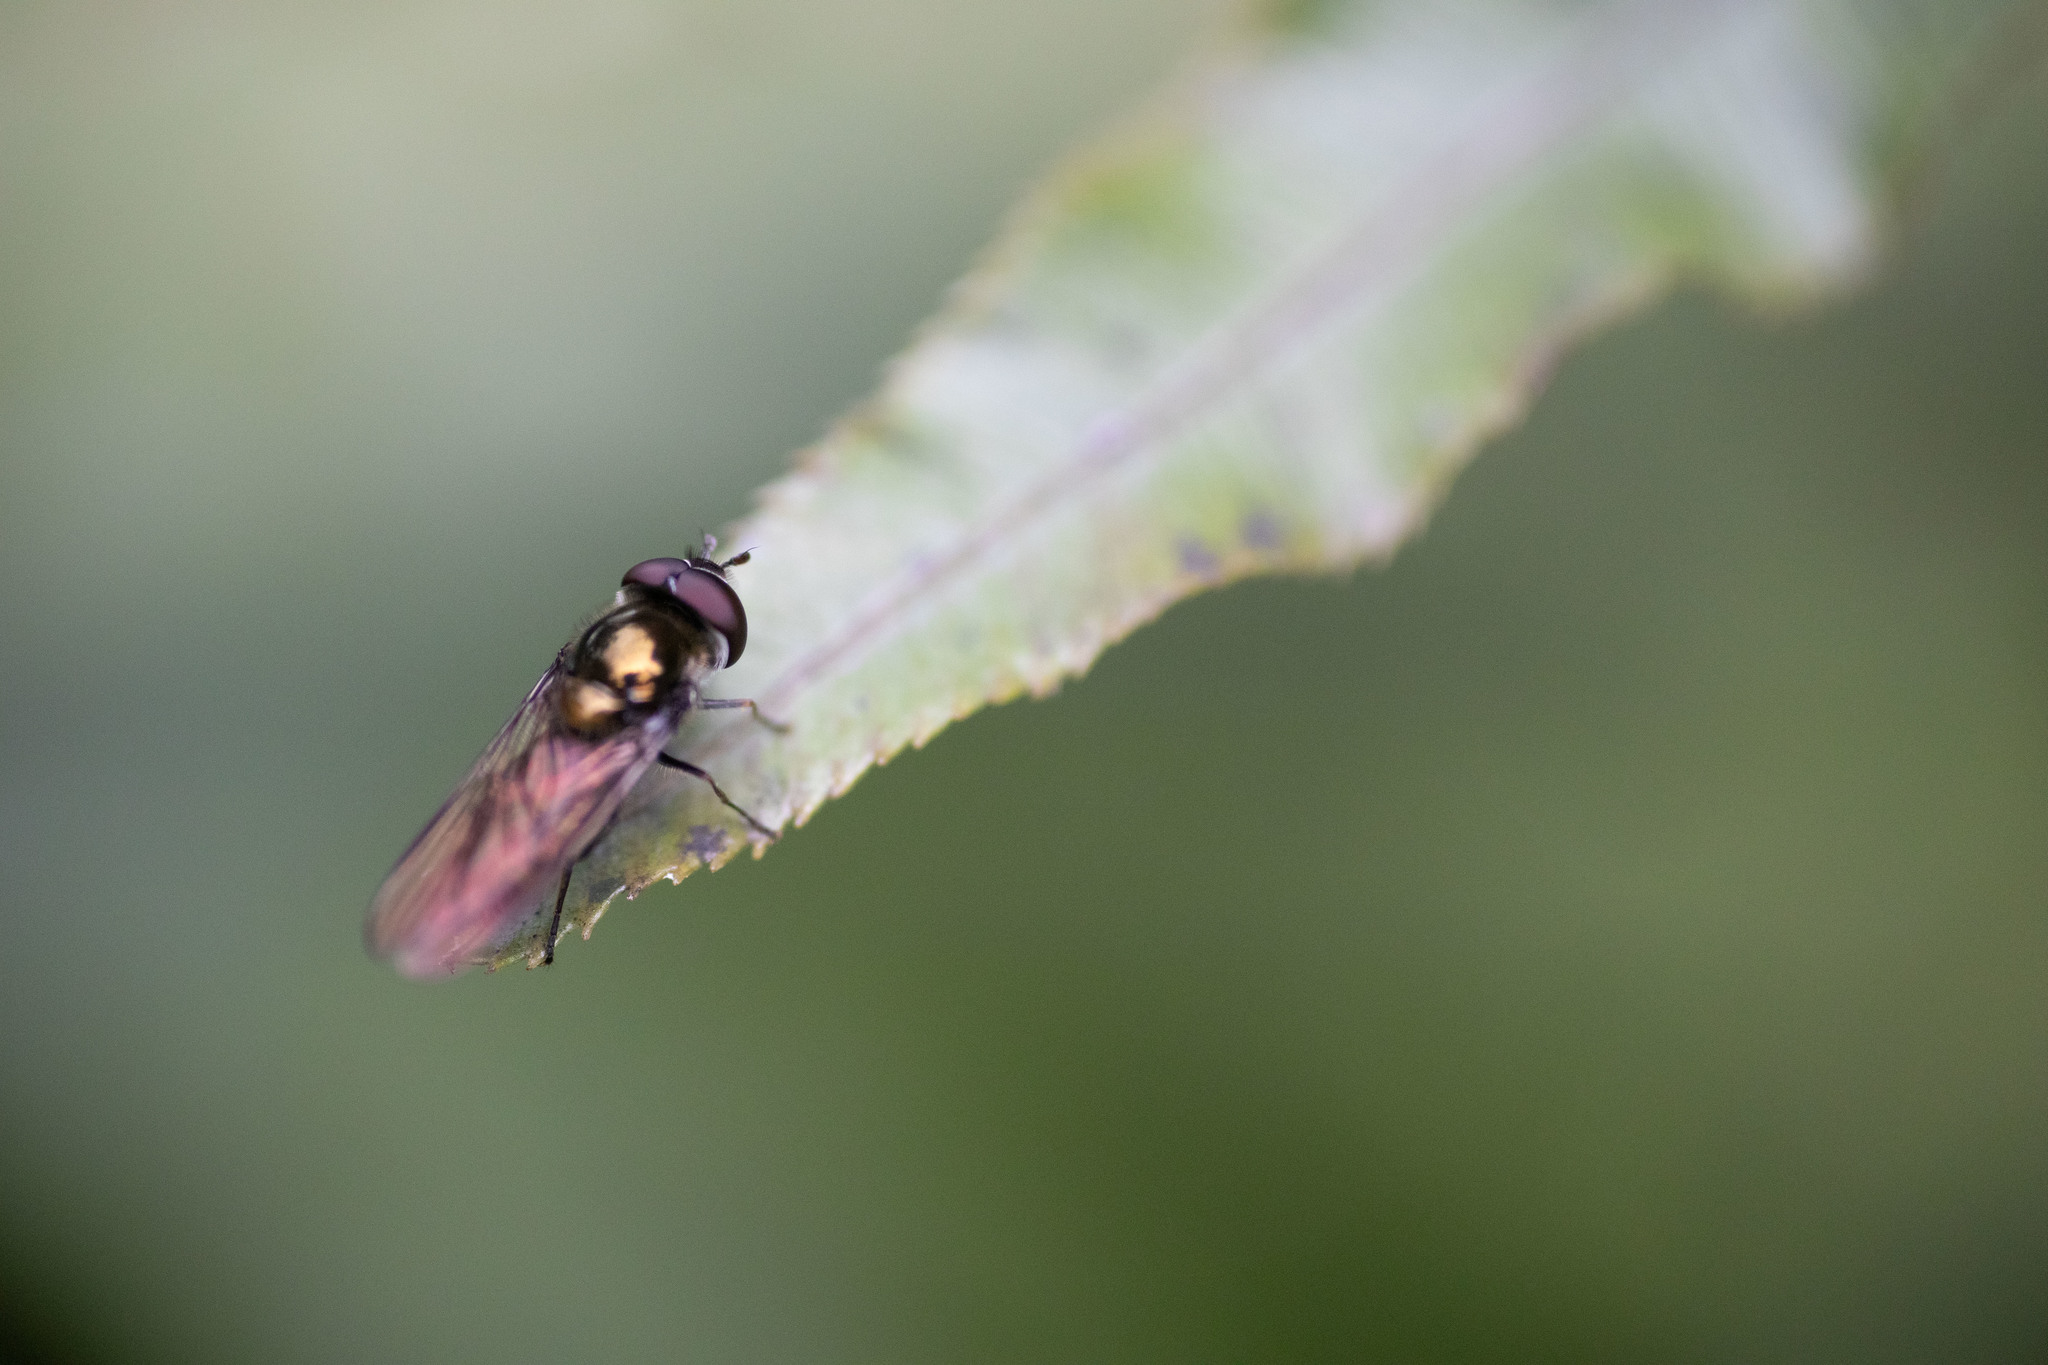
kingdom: Animalia
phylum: Arthropoda
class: Insecta
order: Diptera
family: Syrphidae
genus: Melangyna
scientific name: Melangyna novaezelandiae
